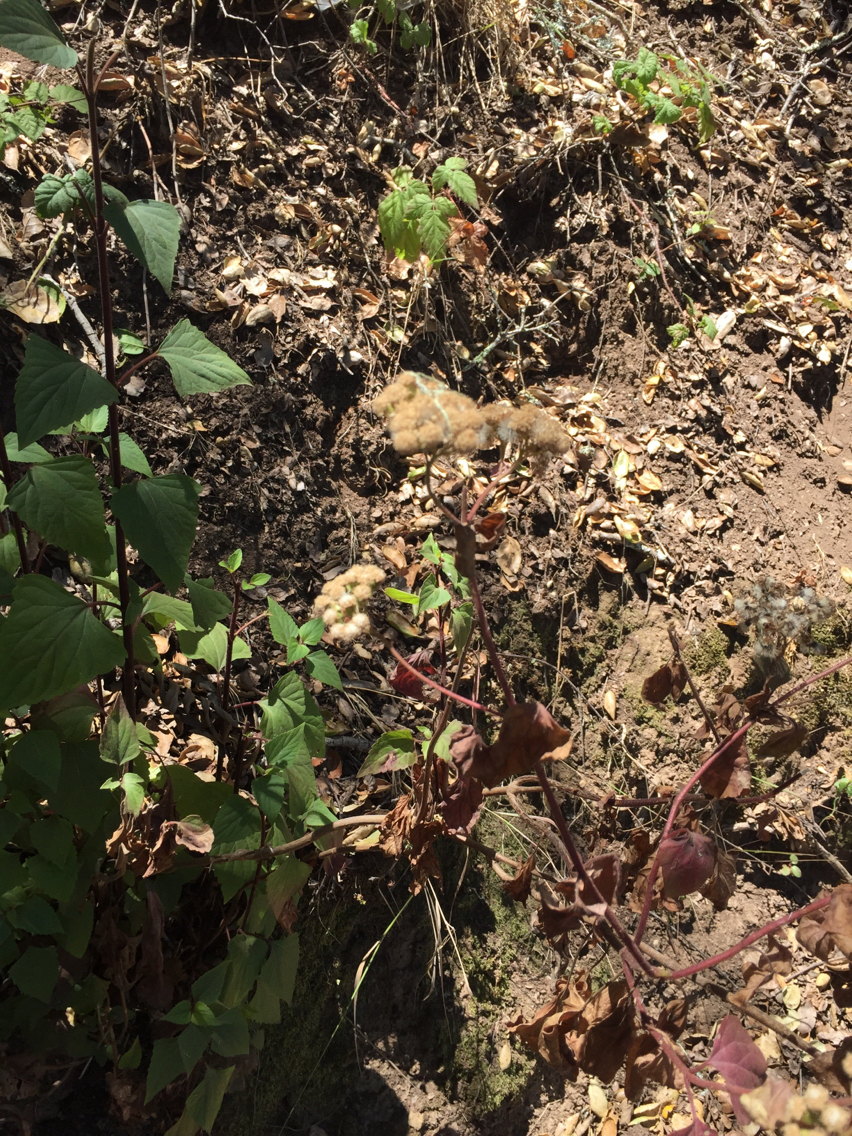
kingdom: Plantae
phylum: Tracheophyta
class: Magnoliopsida
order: Asterales
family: Asteraceae
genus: Ageratina
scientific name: Ageratina adenophora
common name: Sticky snakeroot
